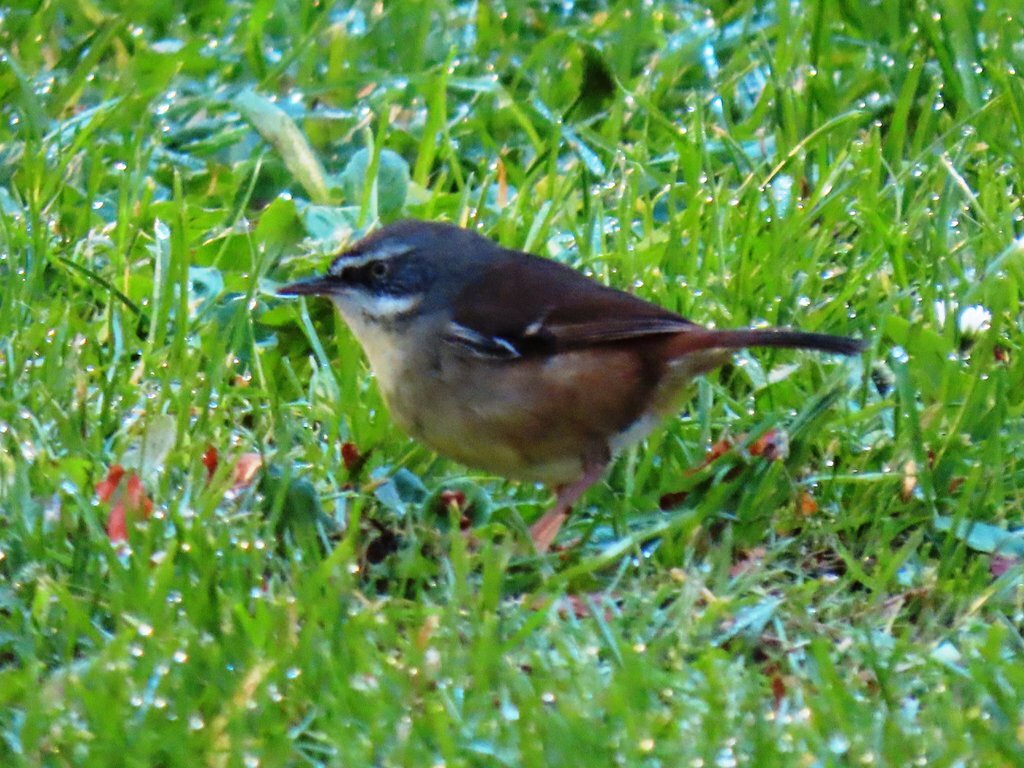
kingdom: Animalia
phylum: Chordata
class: Aves
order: Passeriformes
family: Acanthizidae
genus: Sericornis
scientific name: Sericornis frontalis
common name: White-browed scrubwren
